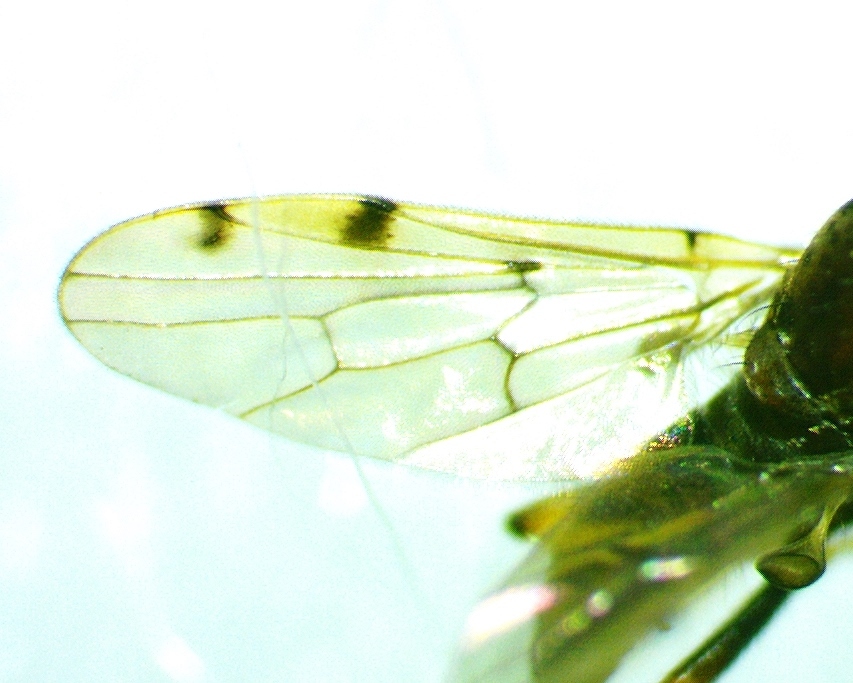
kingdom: Animalia
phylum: Arthropoda
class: Insecta
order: Diptera
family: Hybotidae
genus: Syneches
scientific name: Syneches simplex
